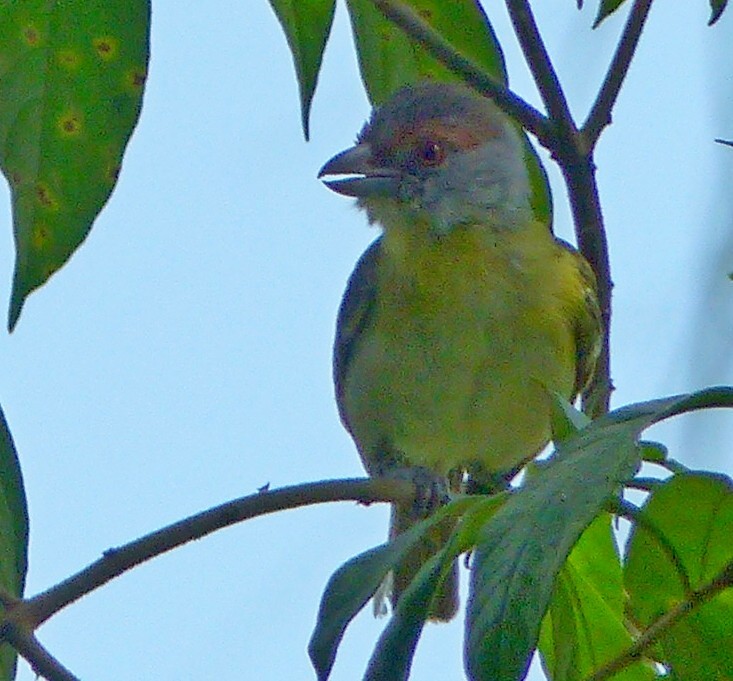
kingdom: Animalia
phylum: Chordata
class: Aves
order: Passeriformes
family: Vireonidae
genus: Cyclarhis
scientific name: Cyclarhis gujanensis
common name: Rufous-browed peppershrike
